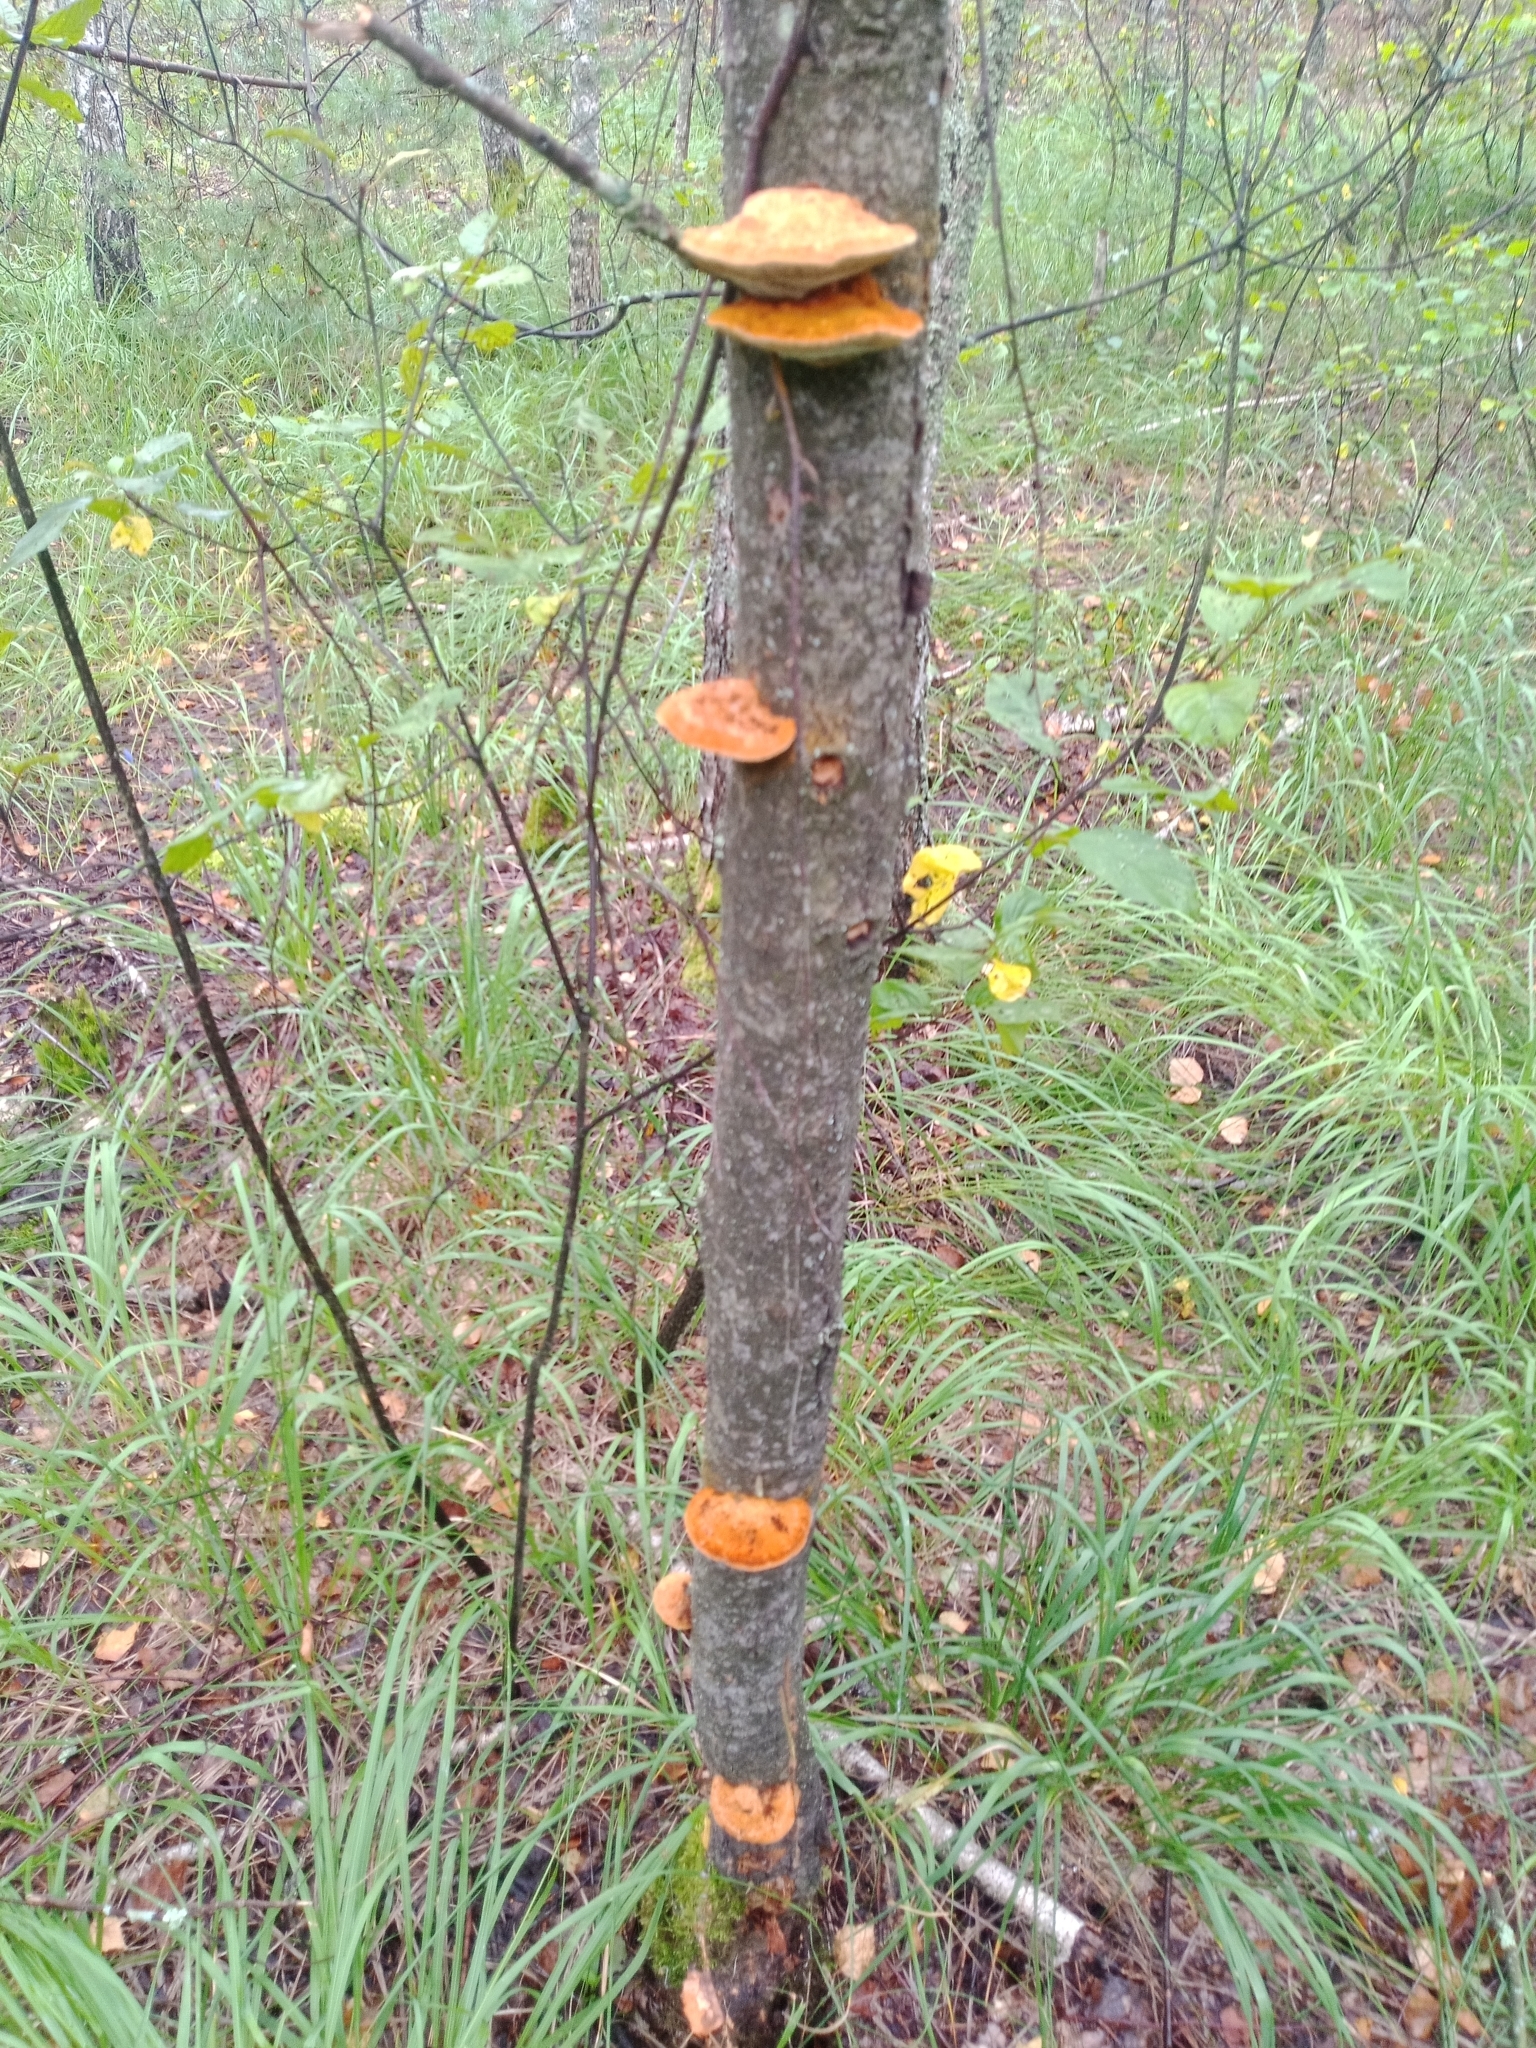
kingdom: Fungi
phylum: Basidiomycota
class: Agaricomycetes
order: Hymenochaetales
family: Hymenochaetaceae
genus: Inocutis
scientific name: Inocutis rheades
